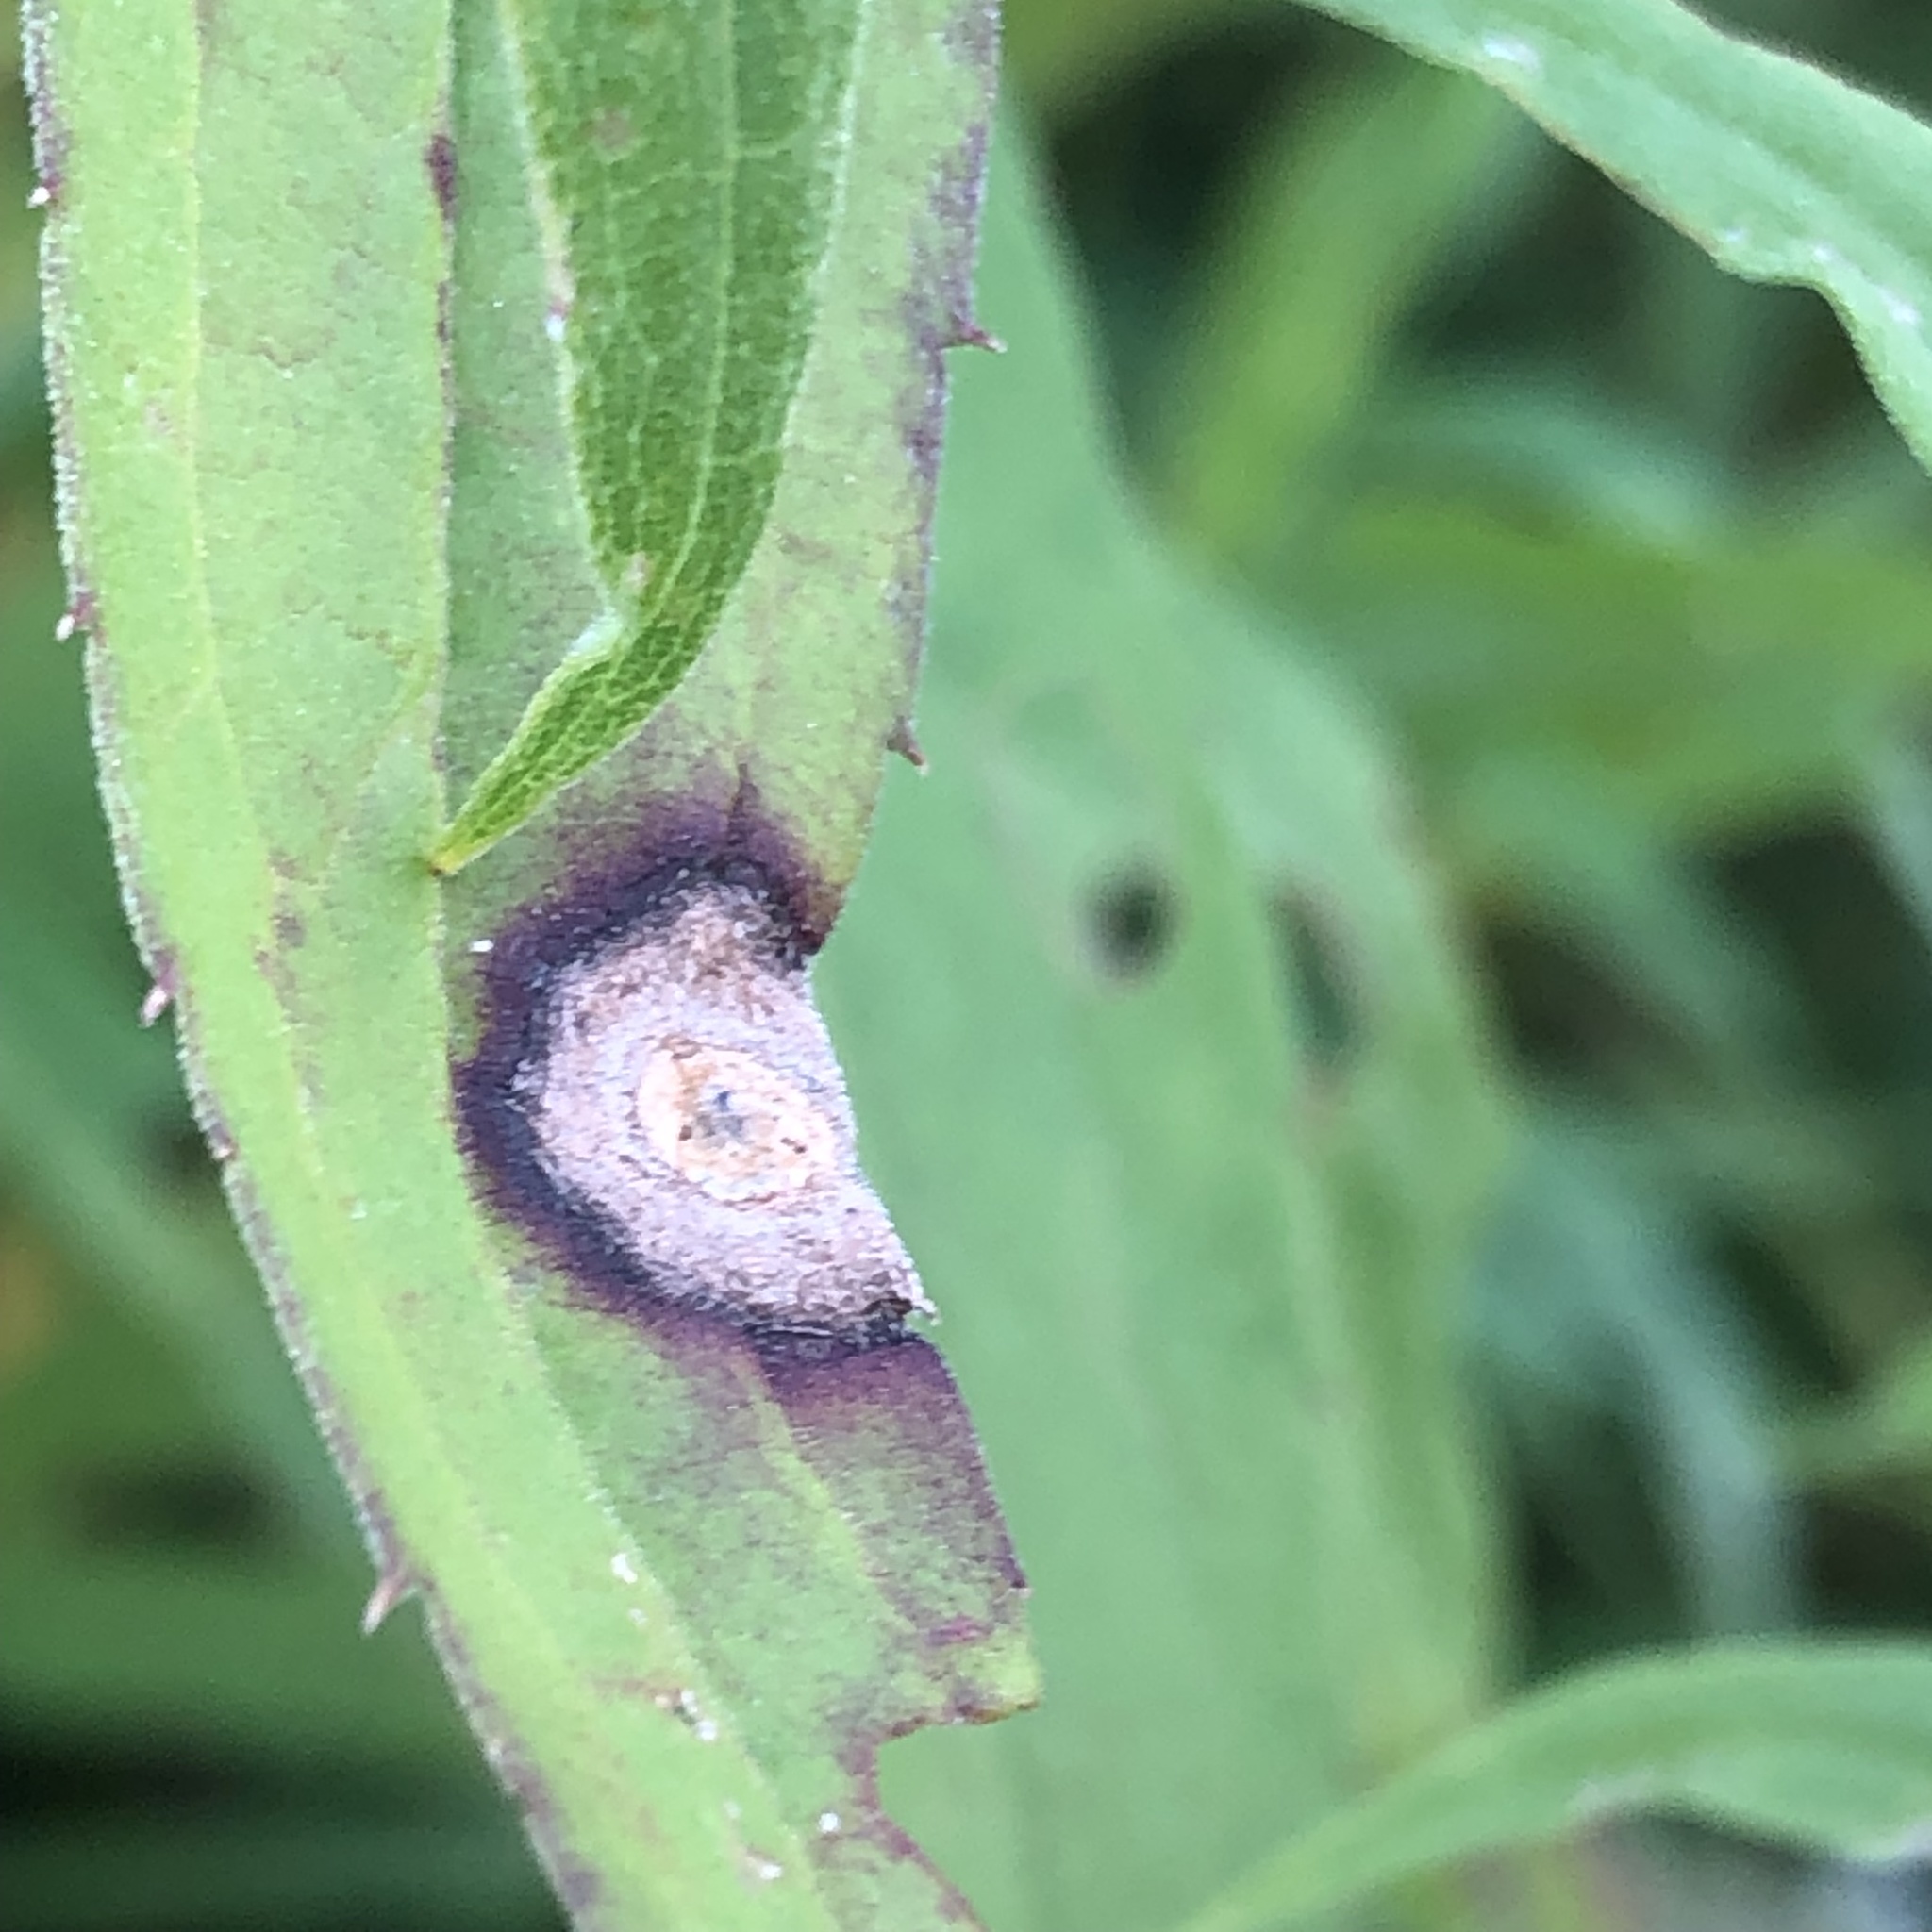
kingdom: Animalia
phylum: Arthropoda
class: Insecta
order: Diptera
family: Cecidomyiidae
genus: Asteromyia
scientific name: Asteromyia carbonifera
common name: Carbonifera goldenrod gall midge
